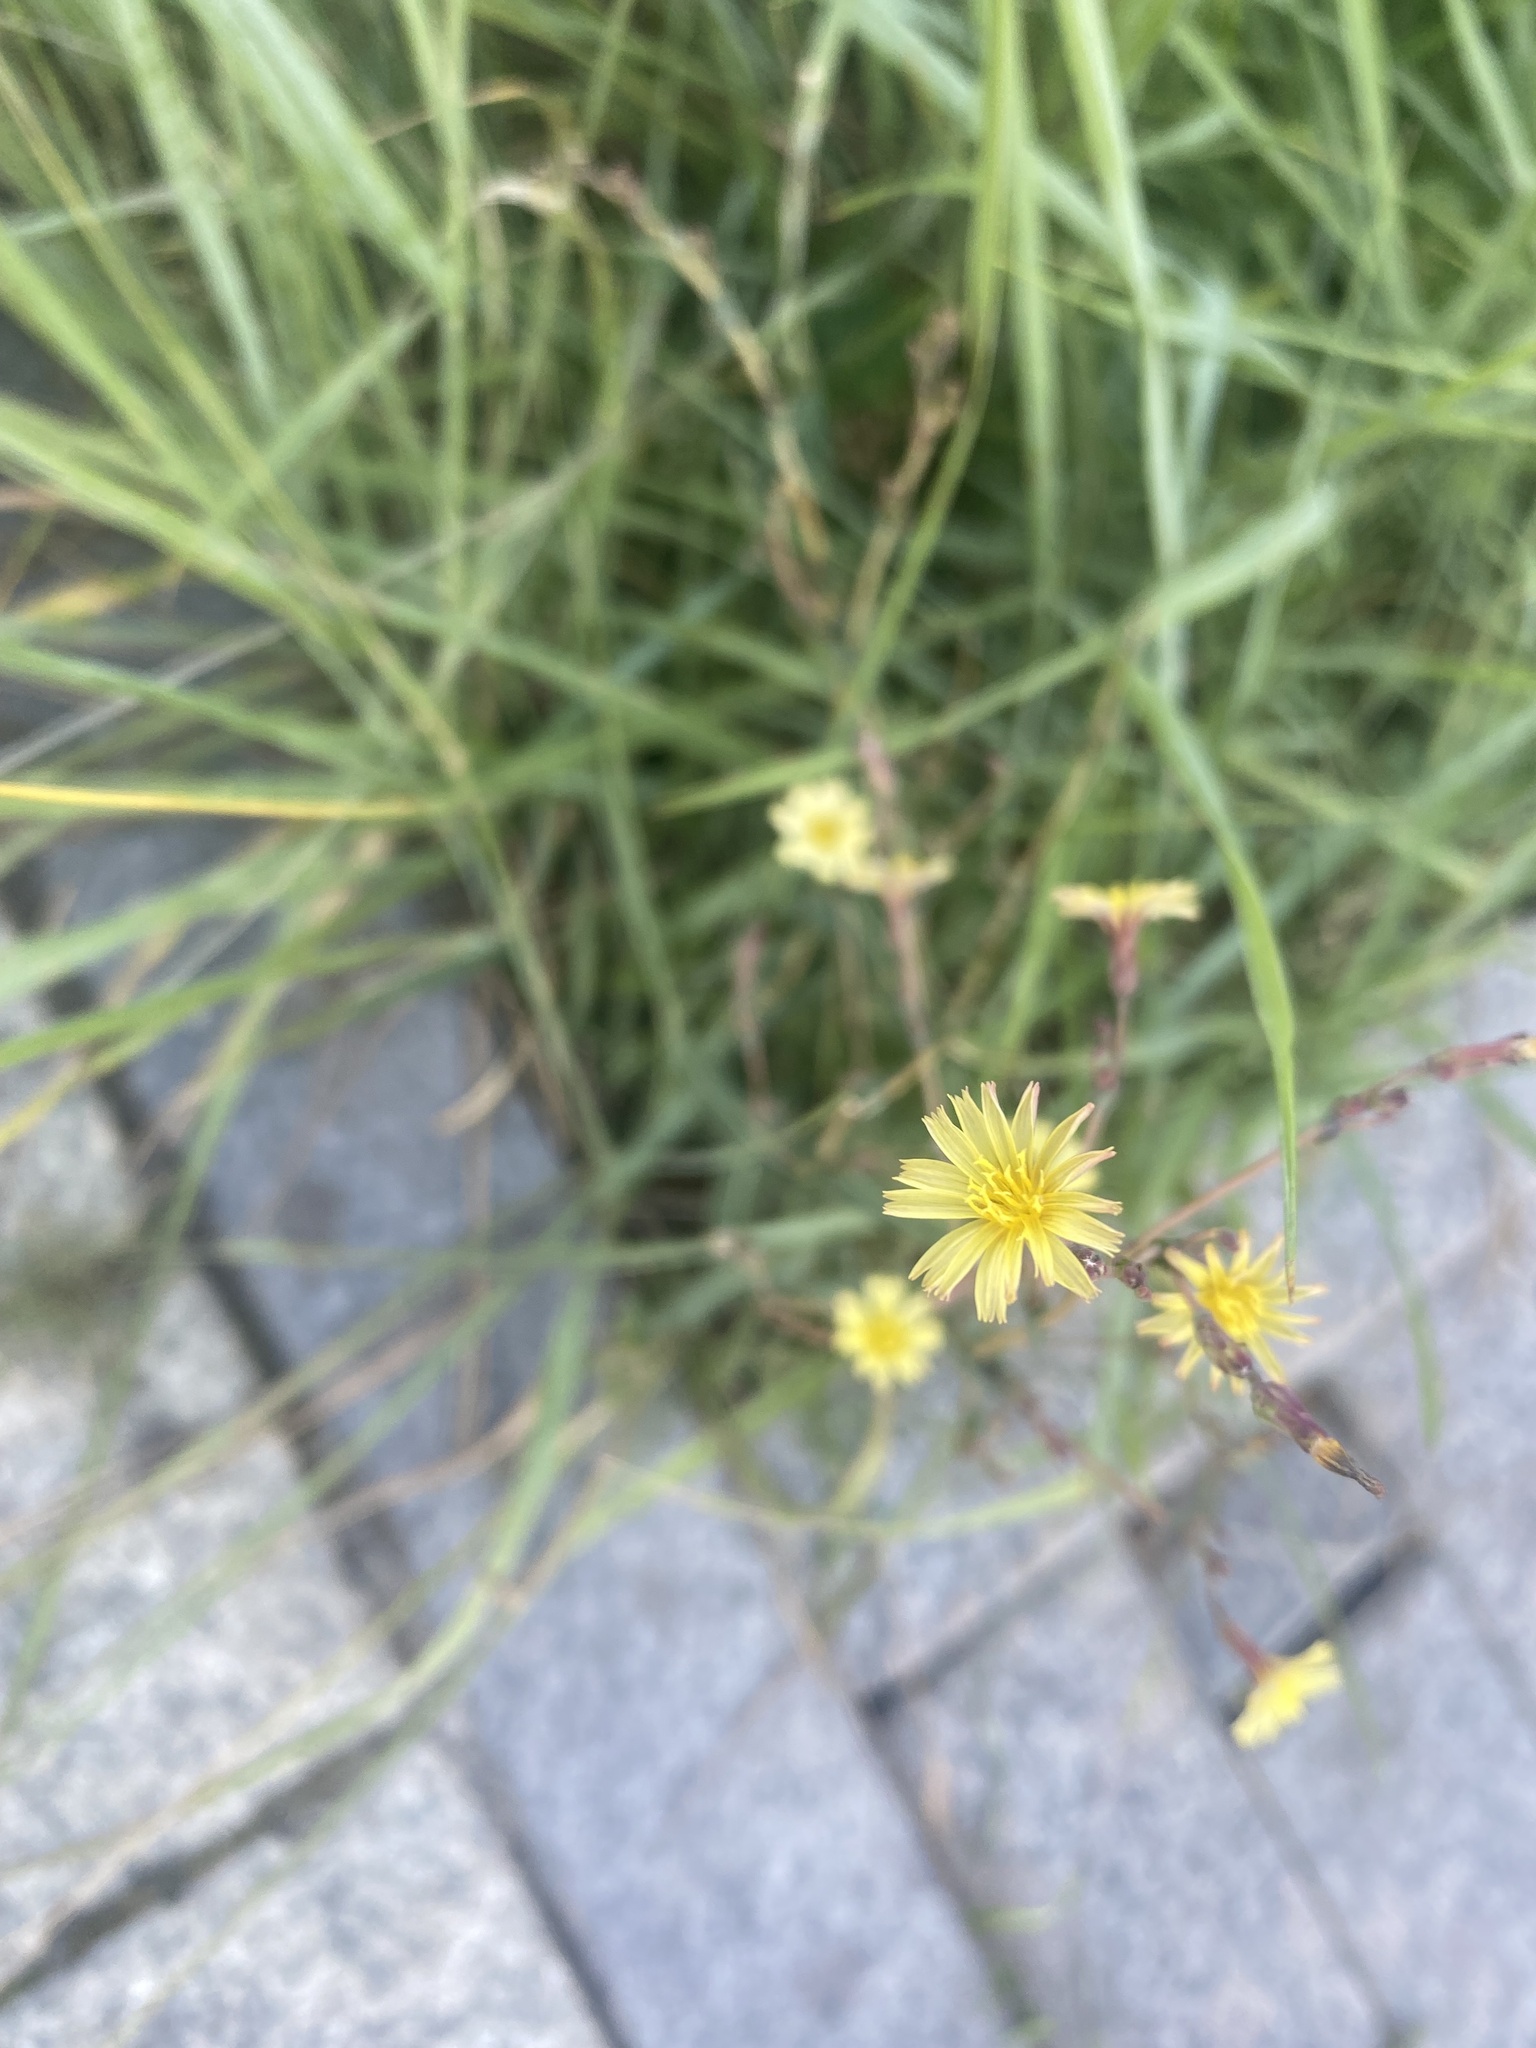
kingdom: Plantae
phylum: Tracheophyta
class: Magnoliopsida
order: Asterales
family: Asteraceae
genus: Lactuca
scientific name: Lactuca serriola
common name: Prickly lettuce
